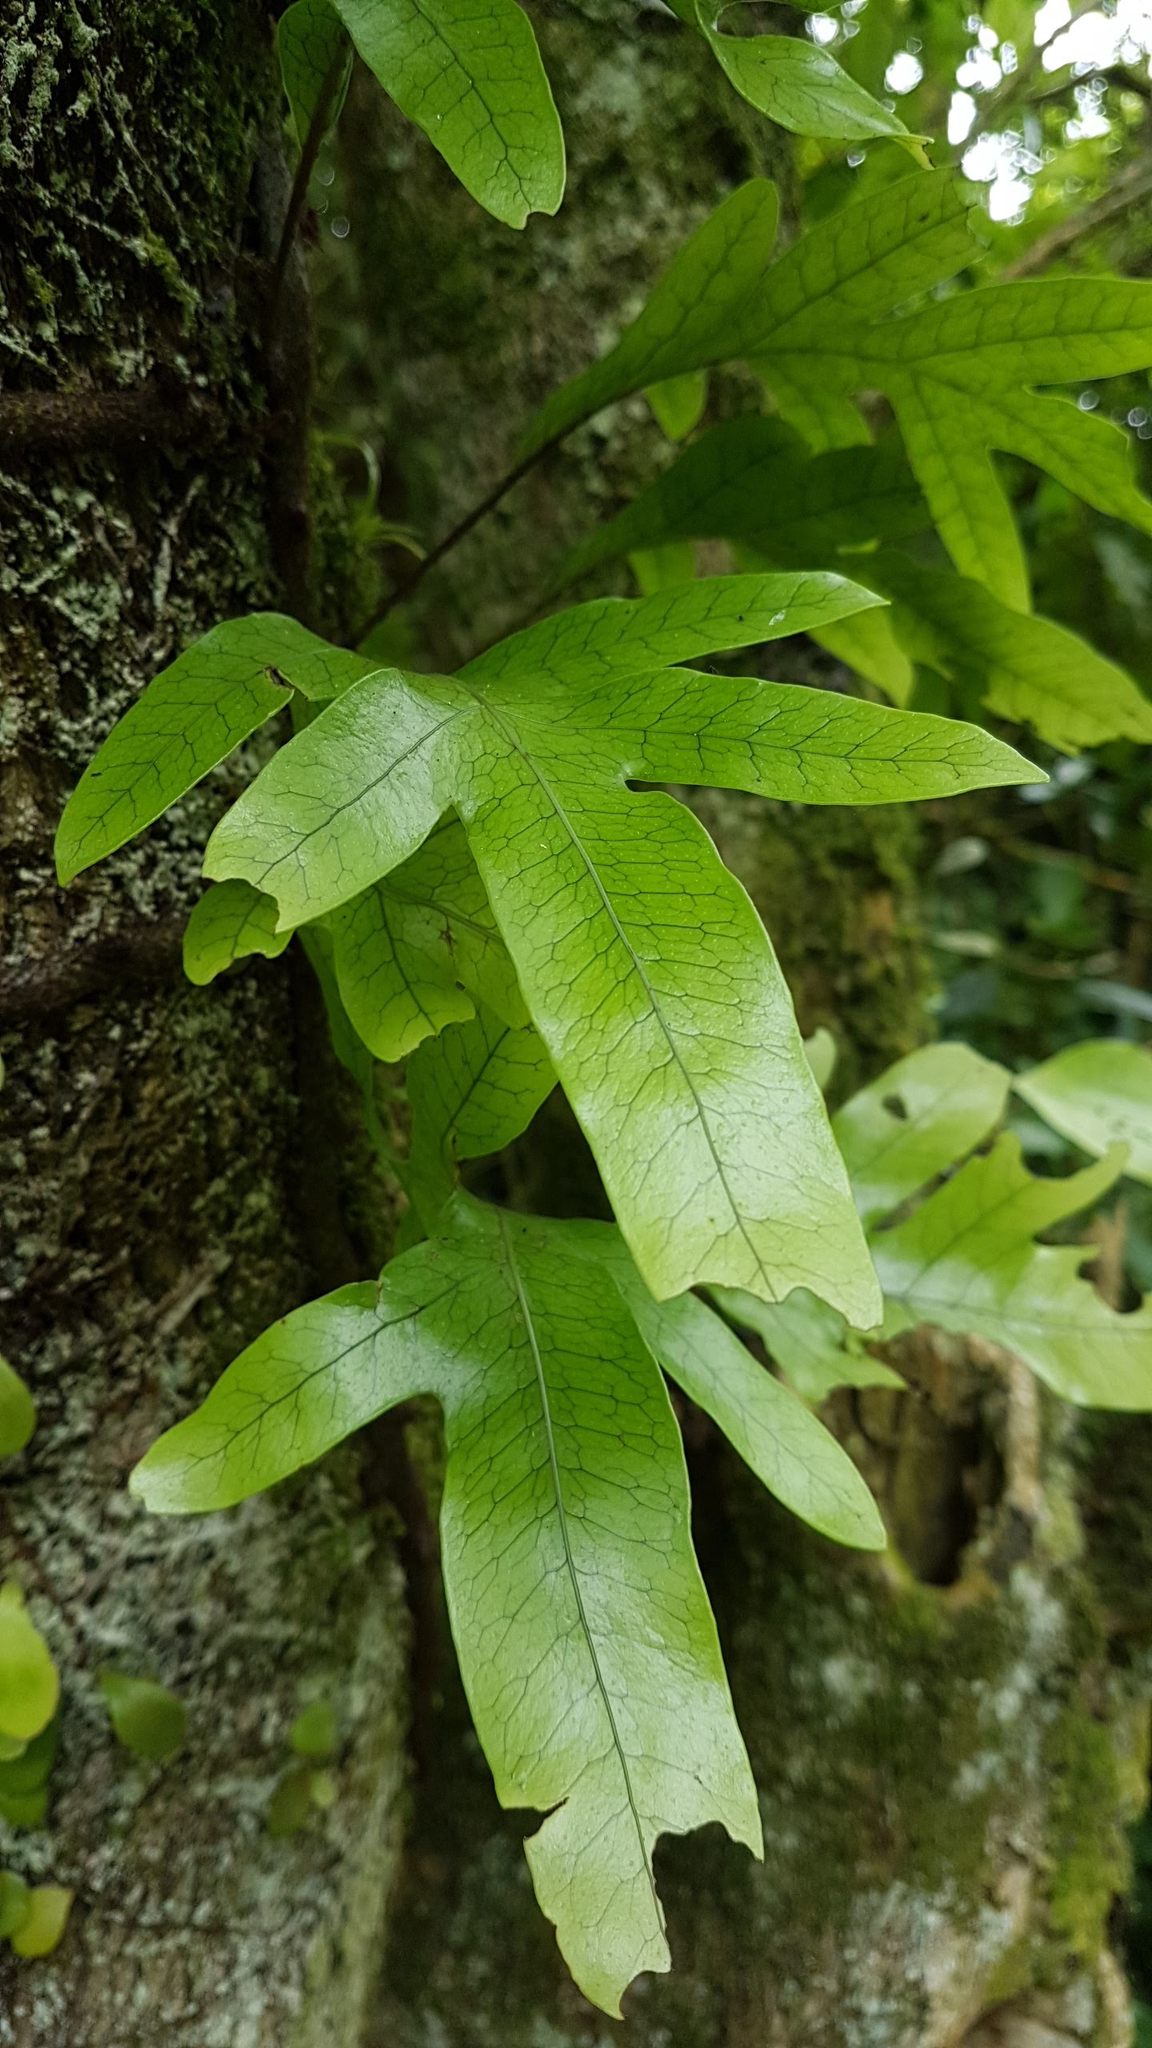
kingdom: Plantae
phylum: Tracheophyta
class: Polypodiopsida
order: Polypodiales
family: Polypodiaceae
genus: Lecanopteris
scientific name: Lecanopteris pustulata
